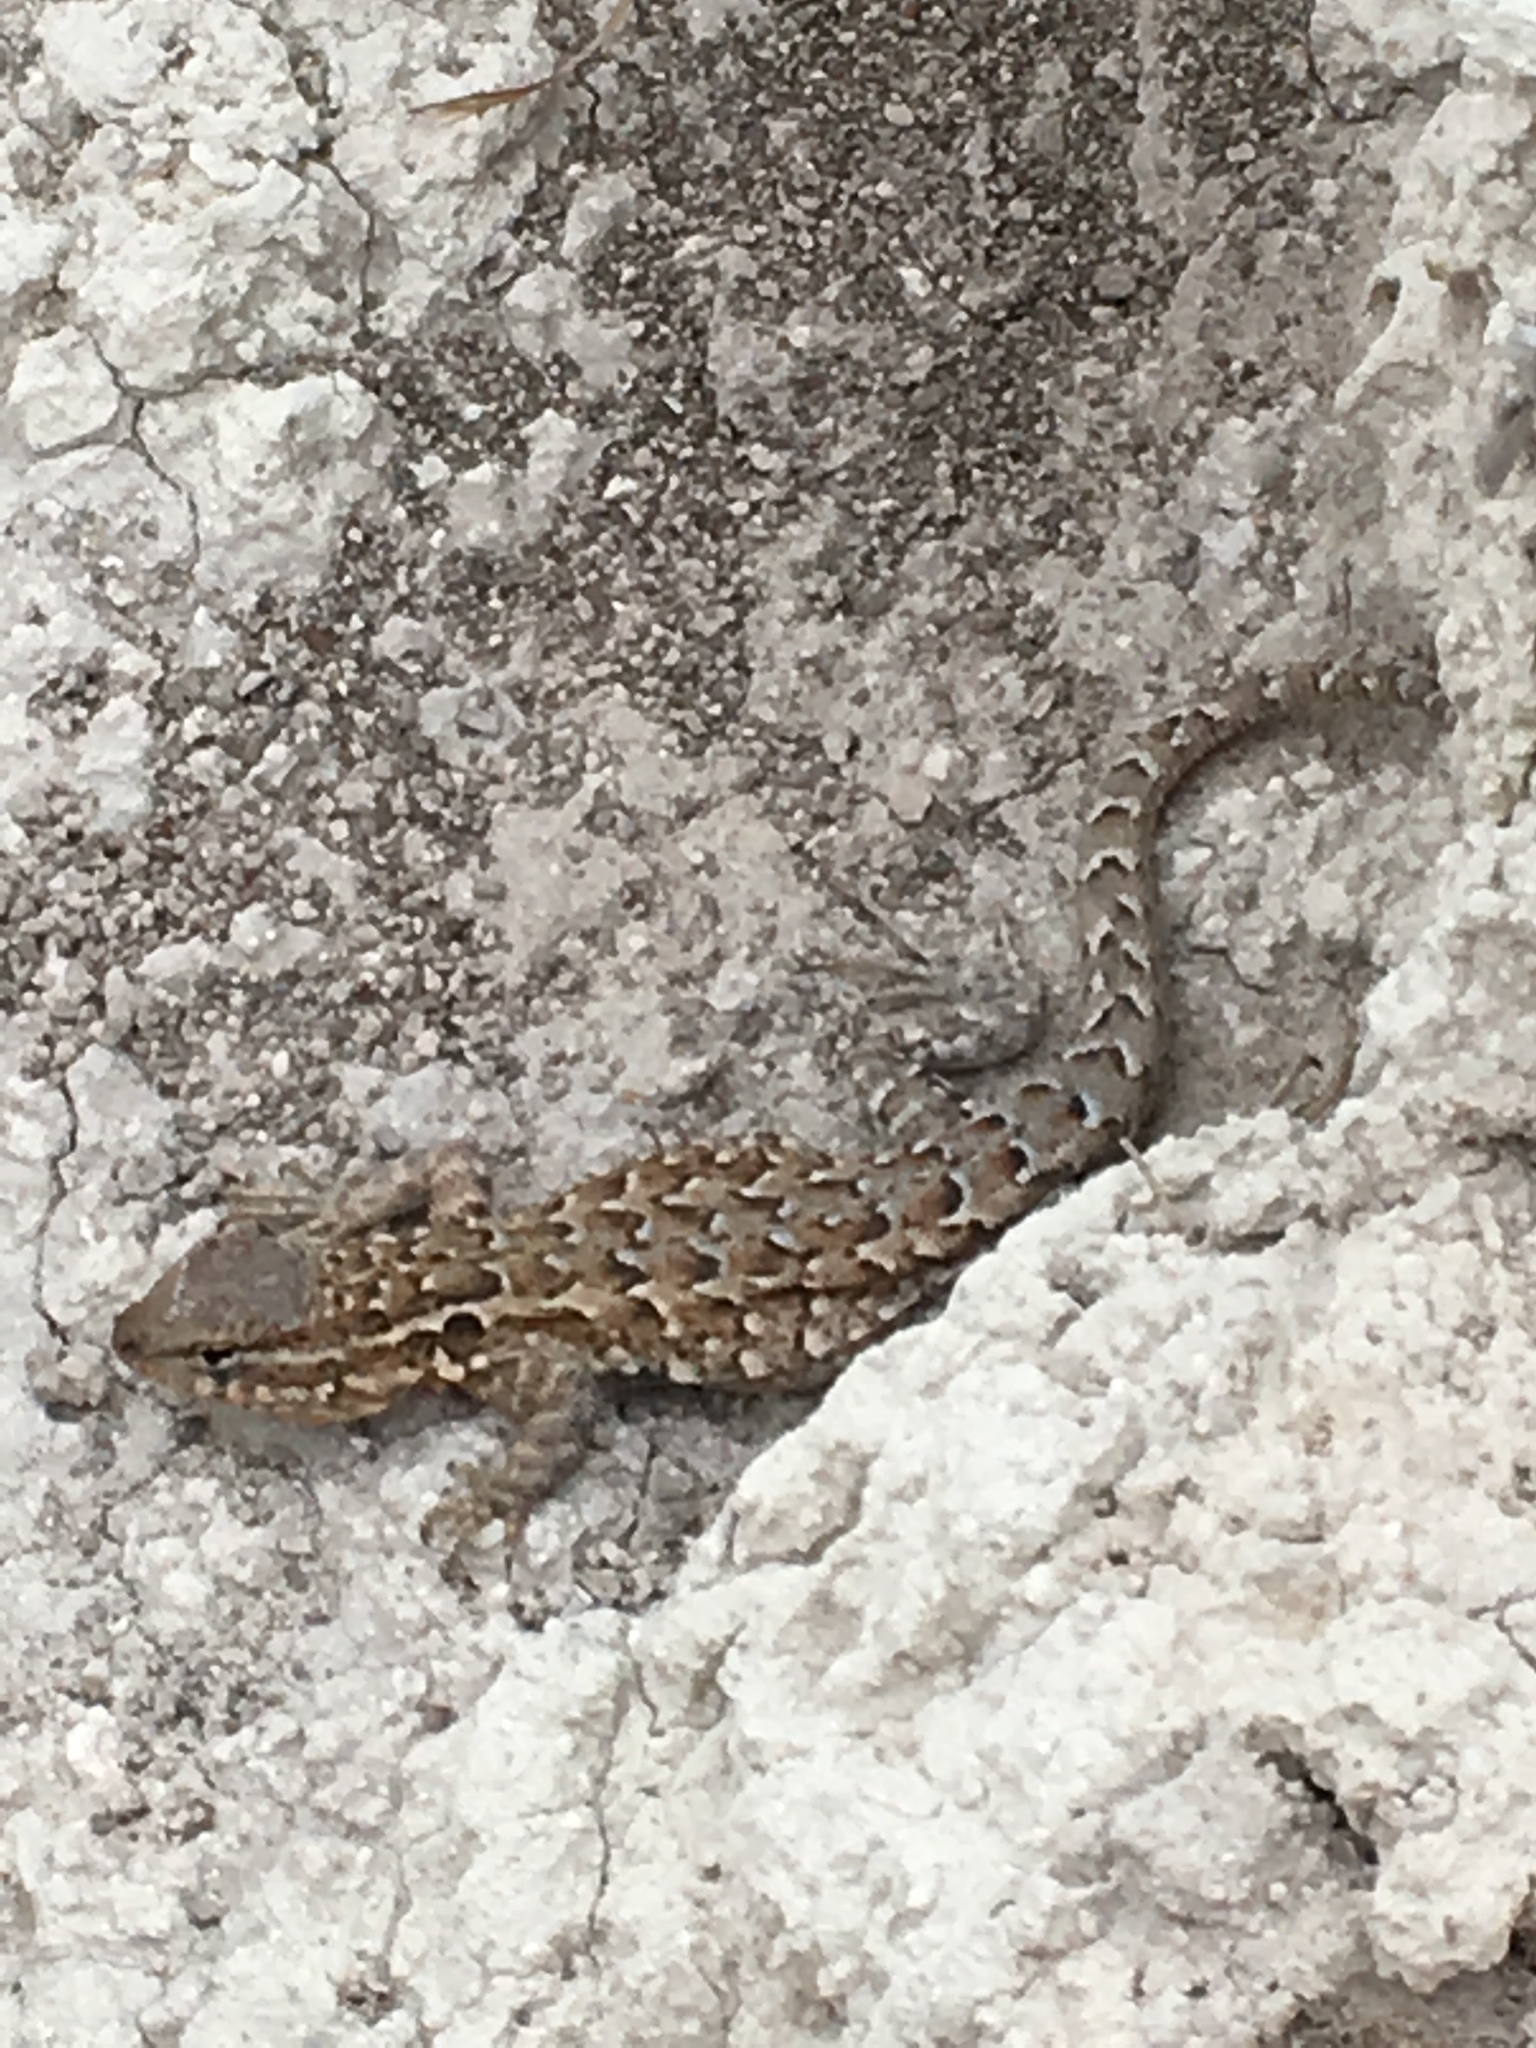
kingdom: Animalia
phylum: Chordata
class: Squamata
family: Phrynosomatidae
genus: Uta
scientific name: Uta stansburiana
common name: Side-blotched lizard
